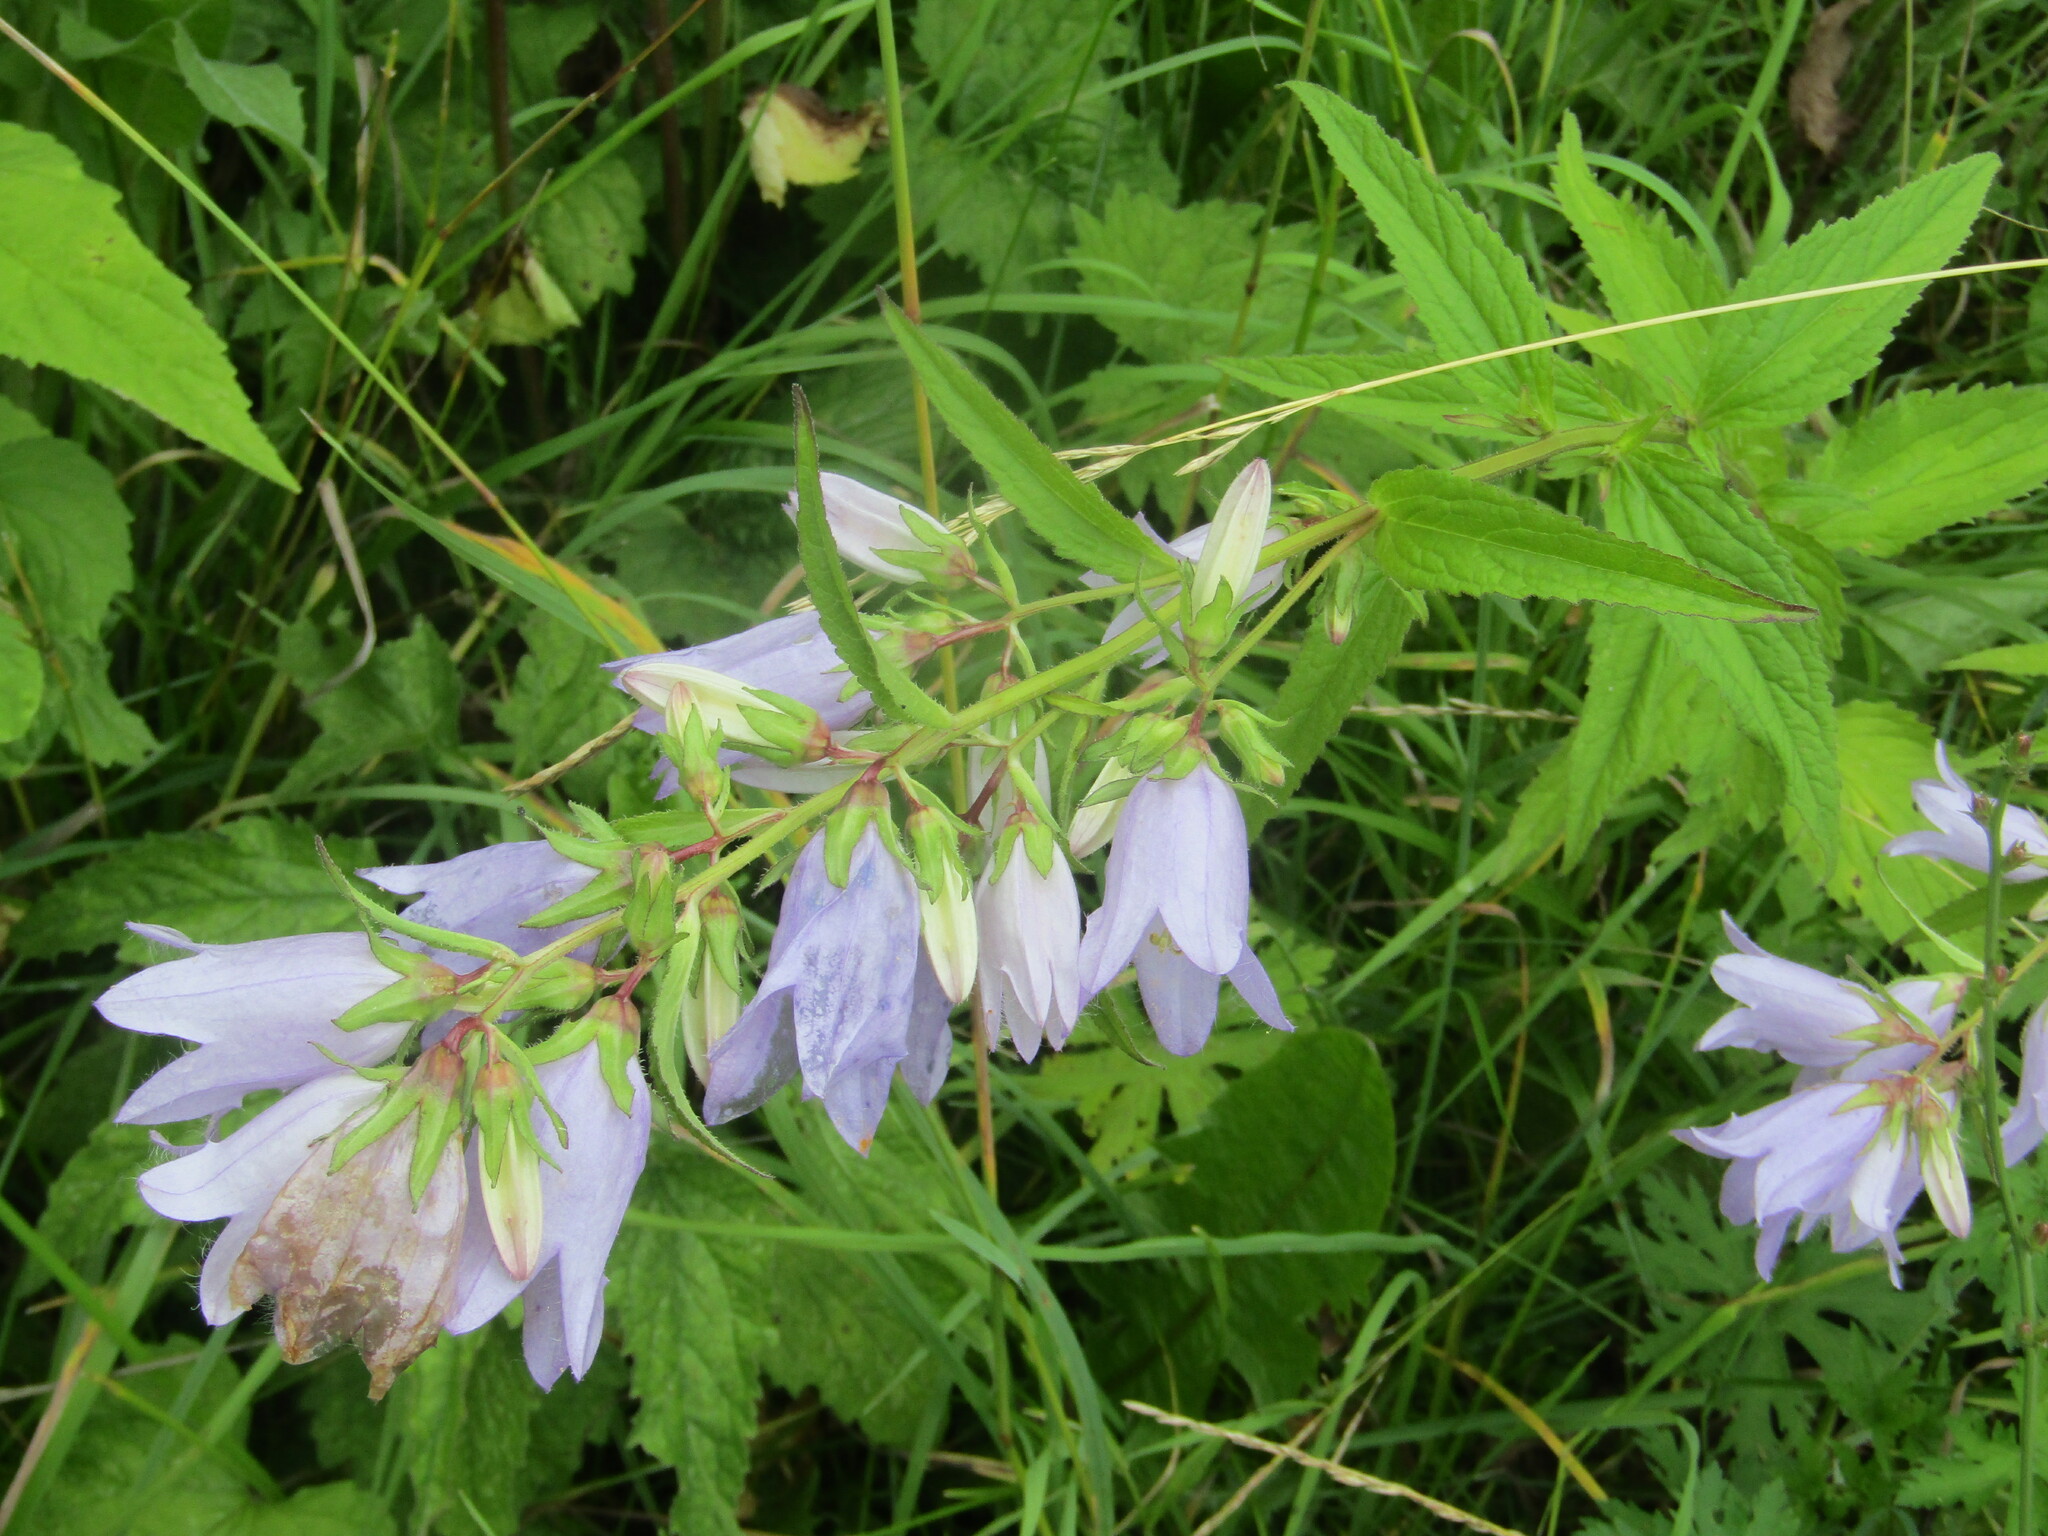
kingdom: Plantae
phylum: Tracheophyta
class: Magnoliopsida
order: Asterales
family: Campanulaceae
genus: Campanula
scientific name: Campanula trachelium
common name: Nettle-leaved bellflower
